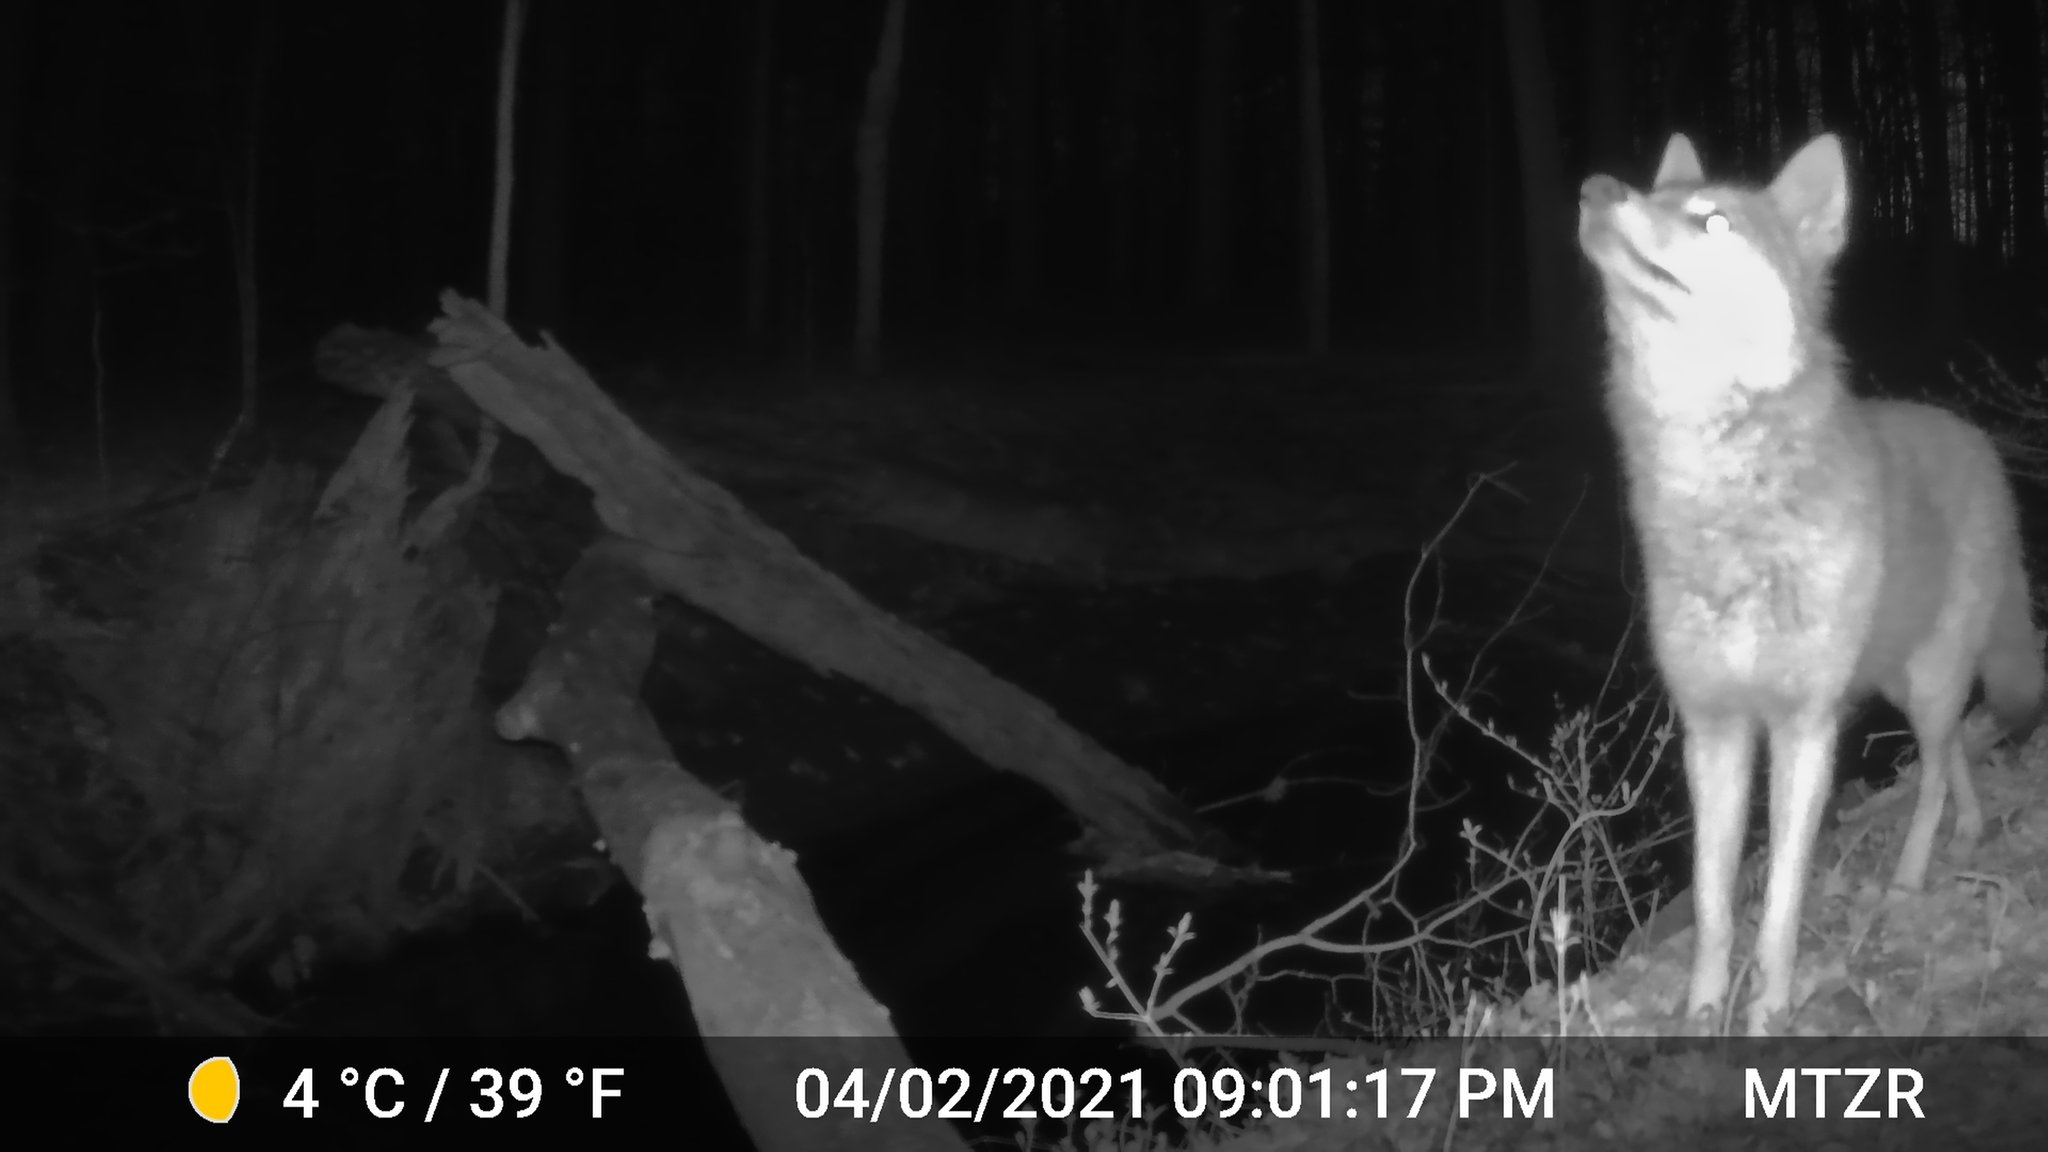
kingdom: Animalia
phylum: Chordata
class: Mammalia
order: Carnivora
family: Canidae
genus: Canis
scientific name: Canis latrans
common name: Coyote
